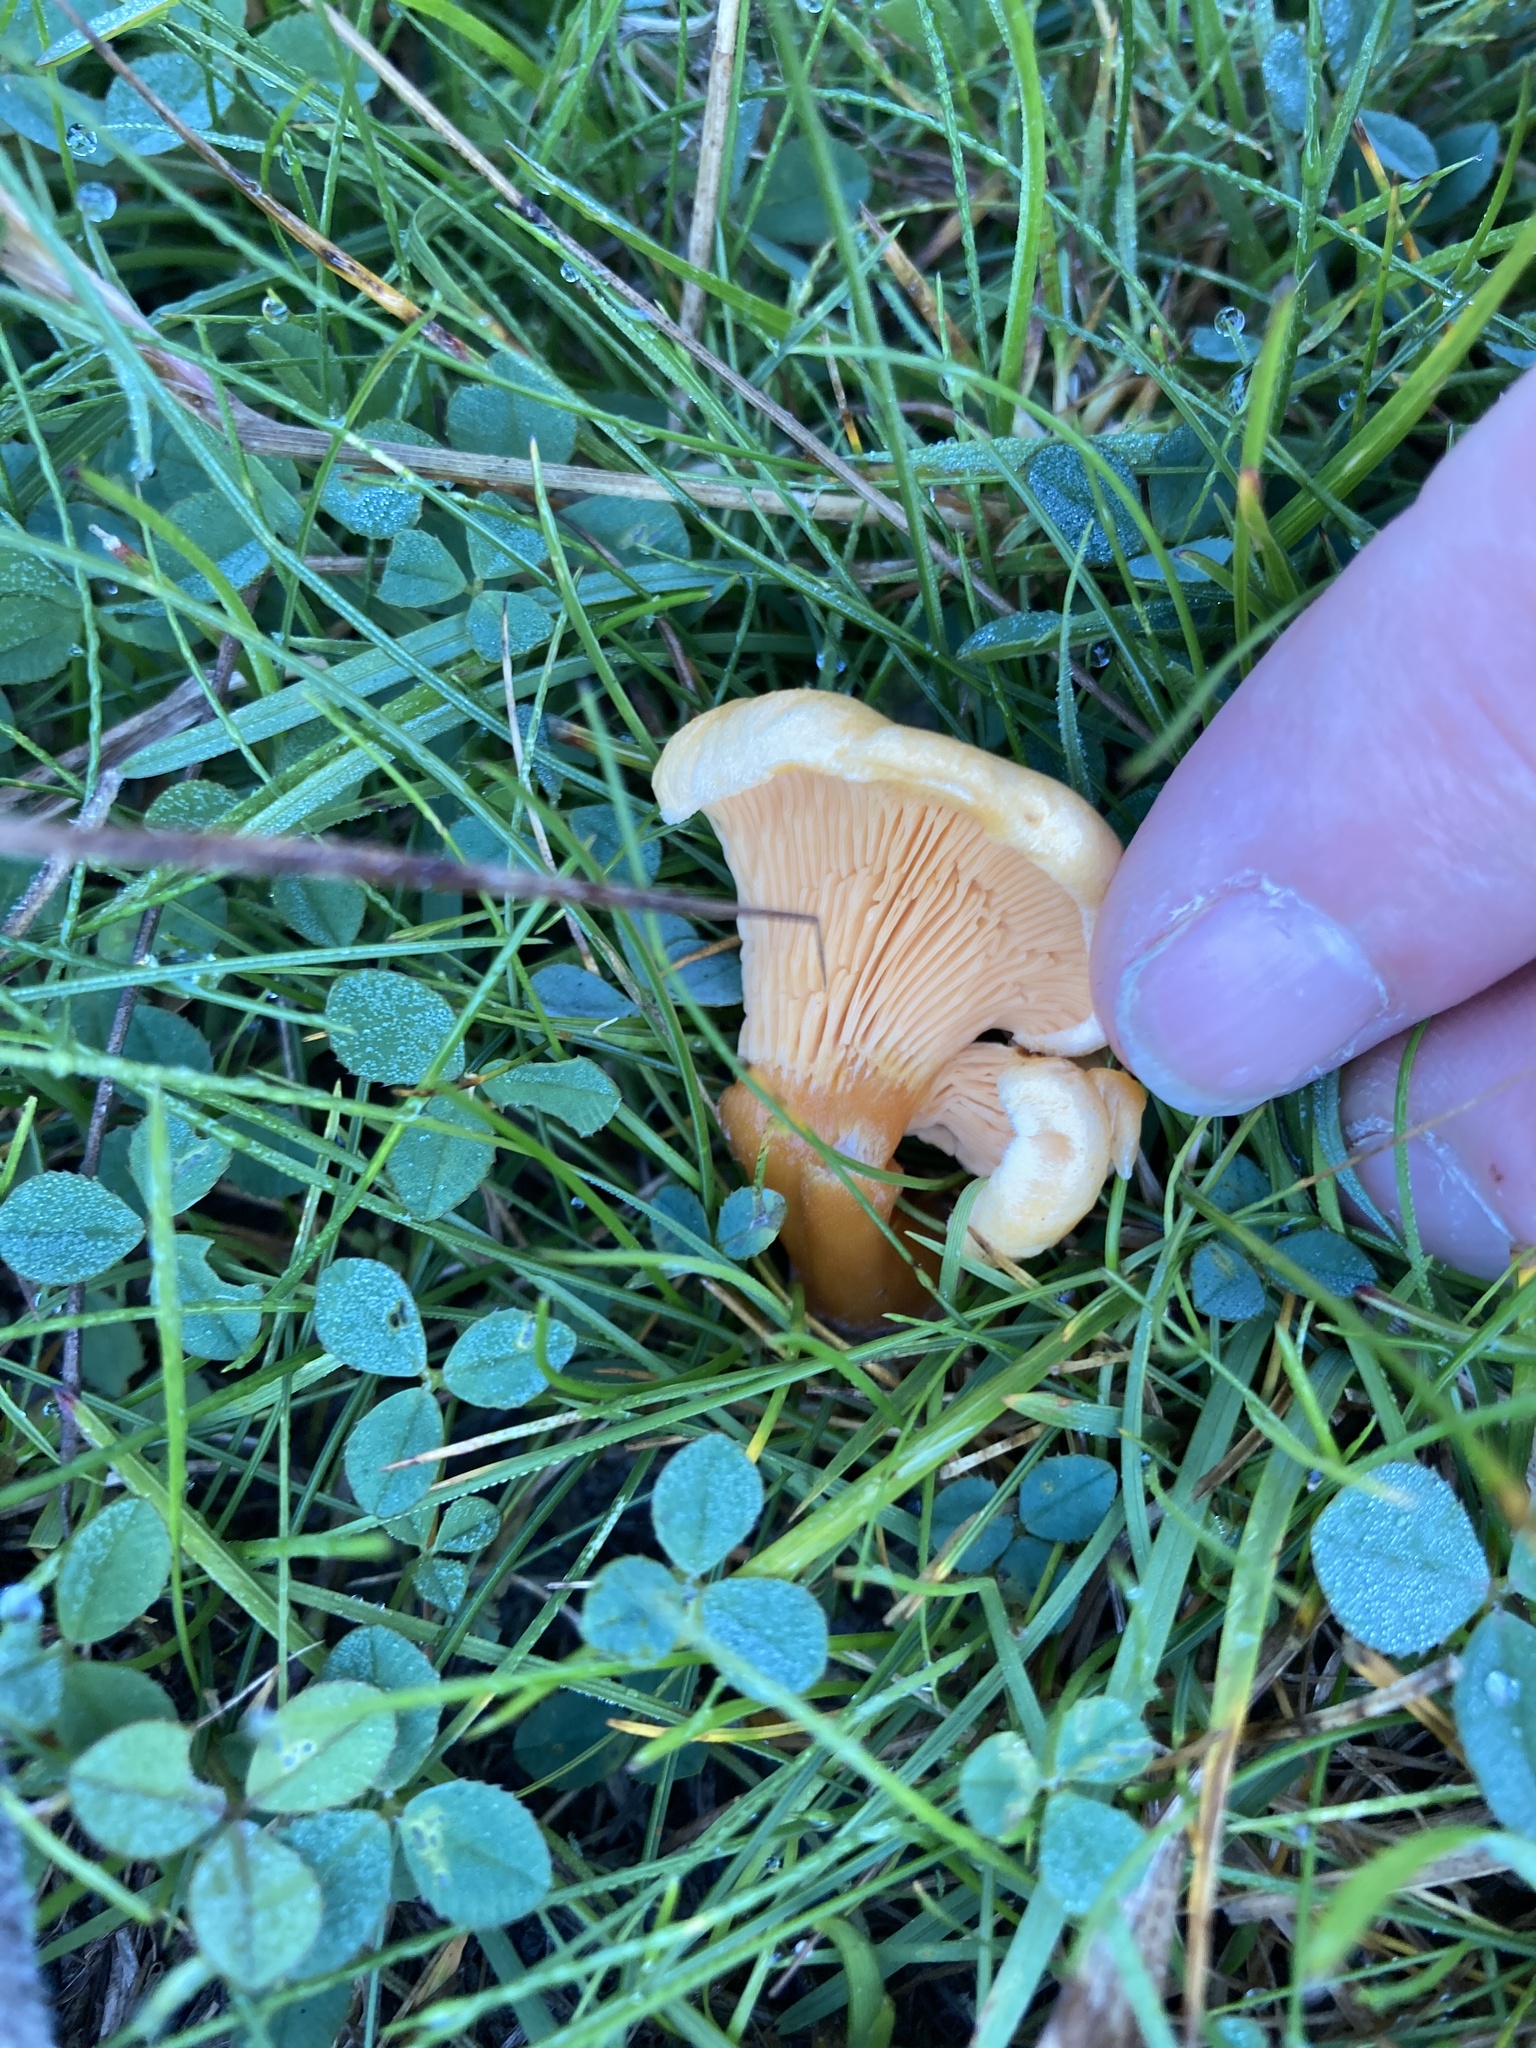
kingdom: Fungi
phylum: Basidiomycota
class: Agaricomycetes
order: Boletales
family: Hygrophoropsidaceae
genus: Hygrophoropsis
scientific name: Hygrophoropsis aurantiaca
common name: False chanterelle
